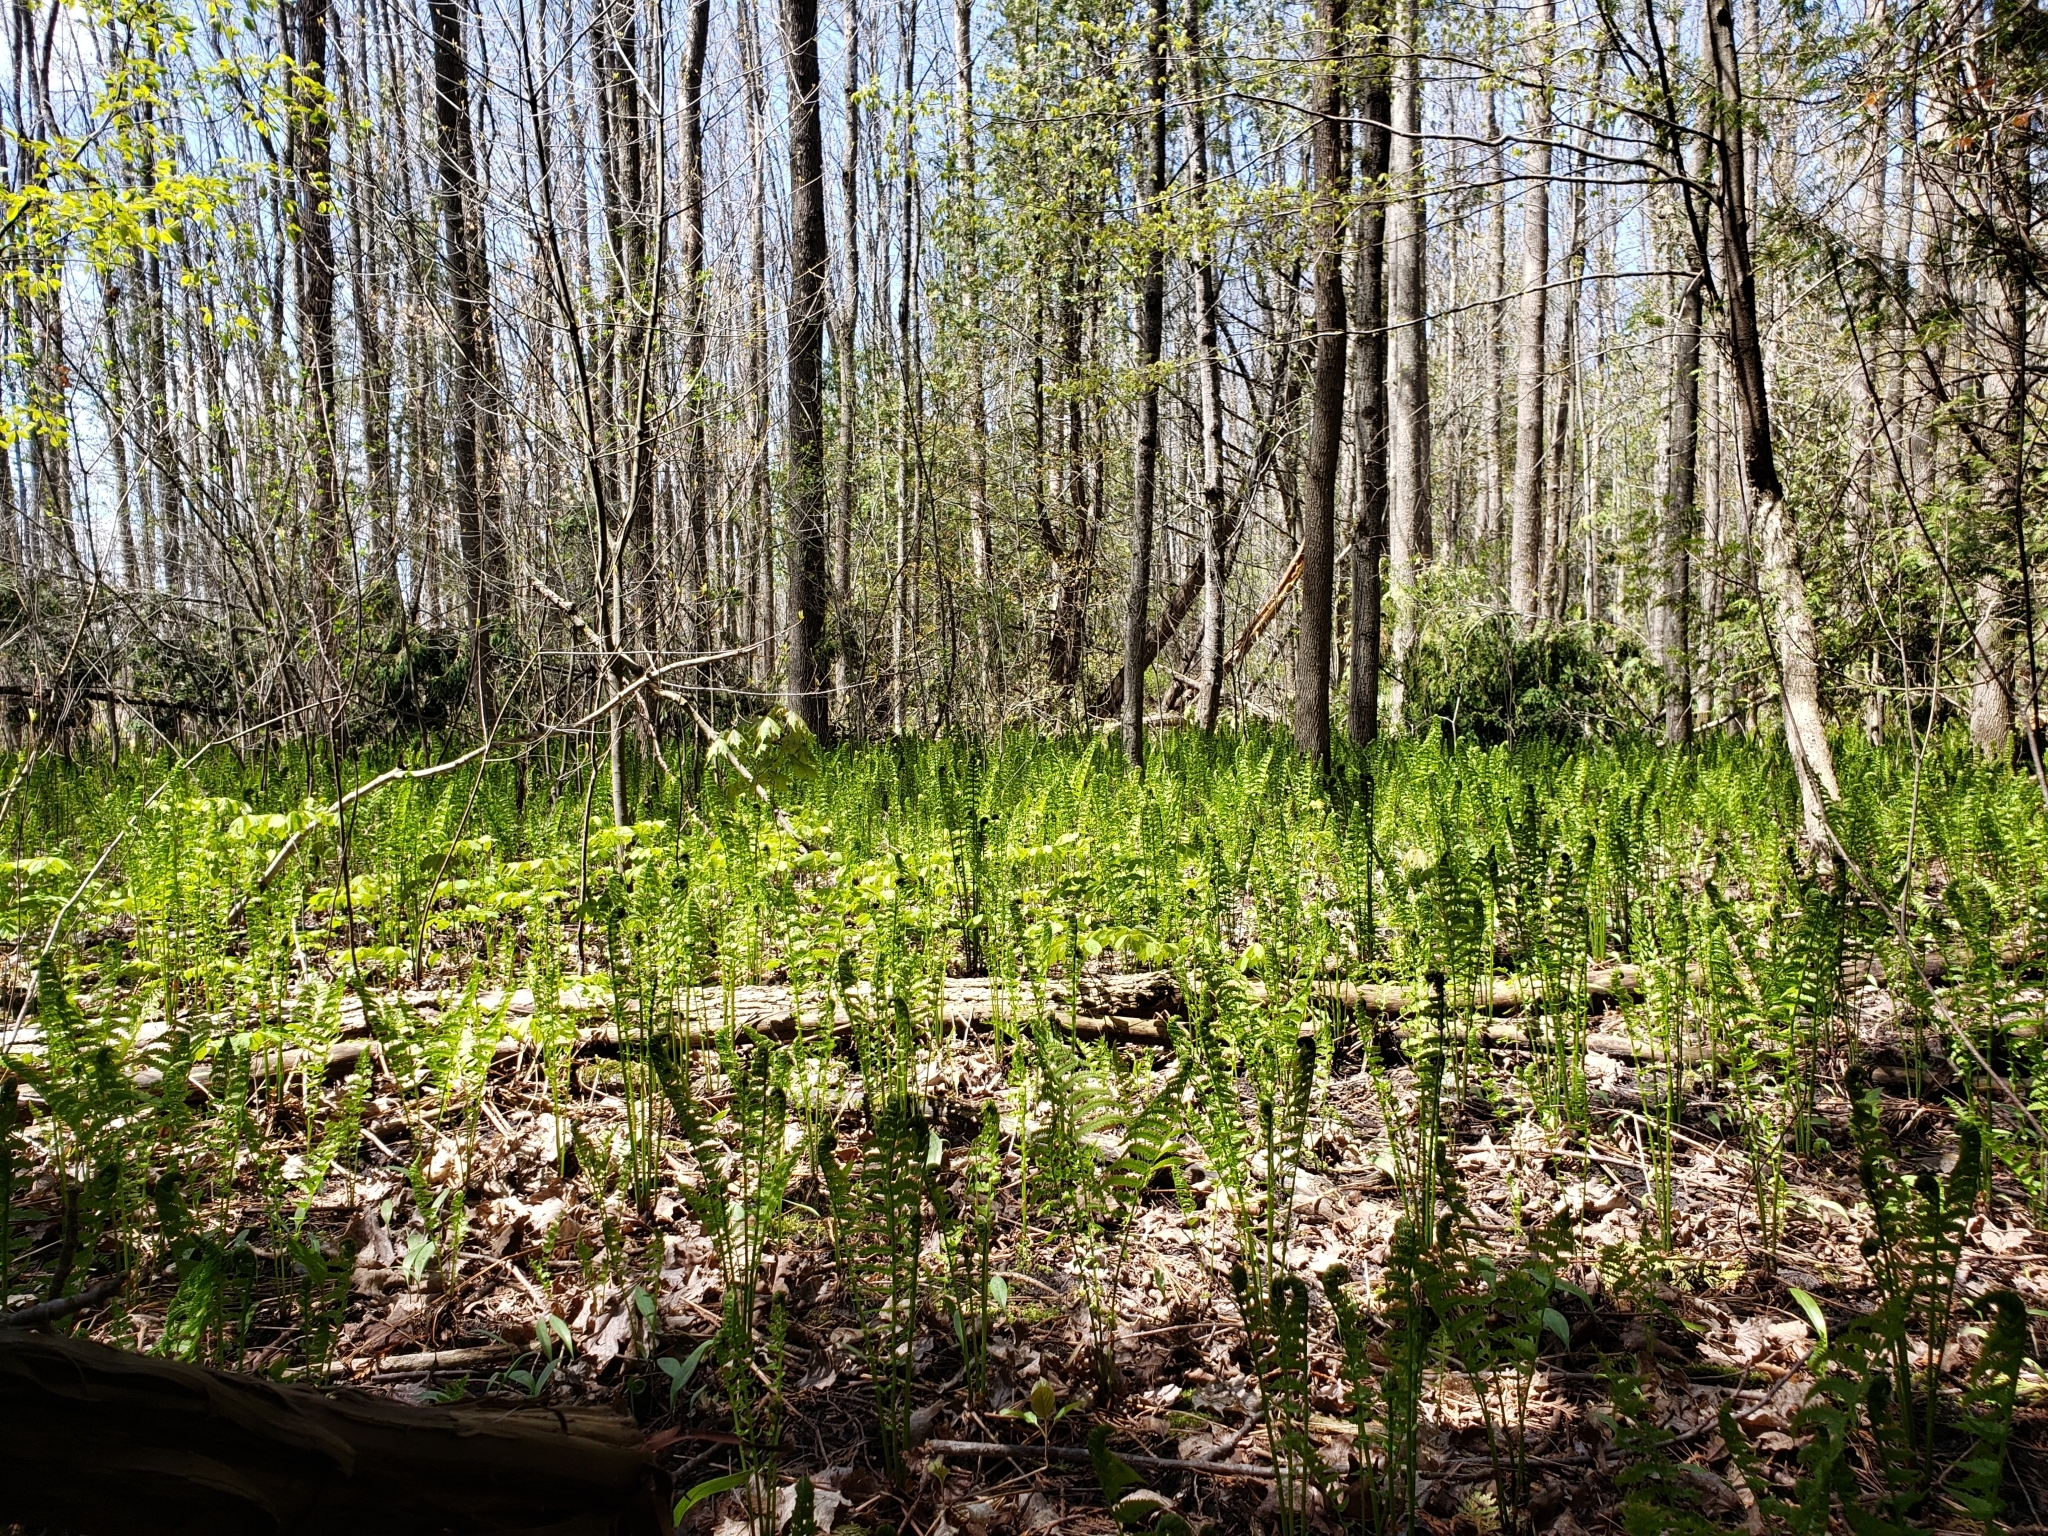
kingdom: Plantae
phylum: Tracheophyta
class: Polypodiopsida
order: Polypodiales
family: Onocleaceae
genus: Matteuccia
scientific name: Matteuccia struthiopteris
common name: Ostrich fern
